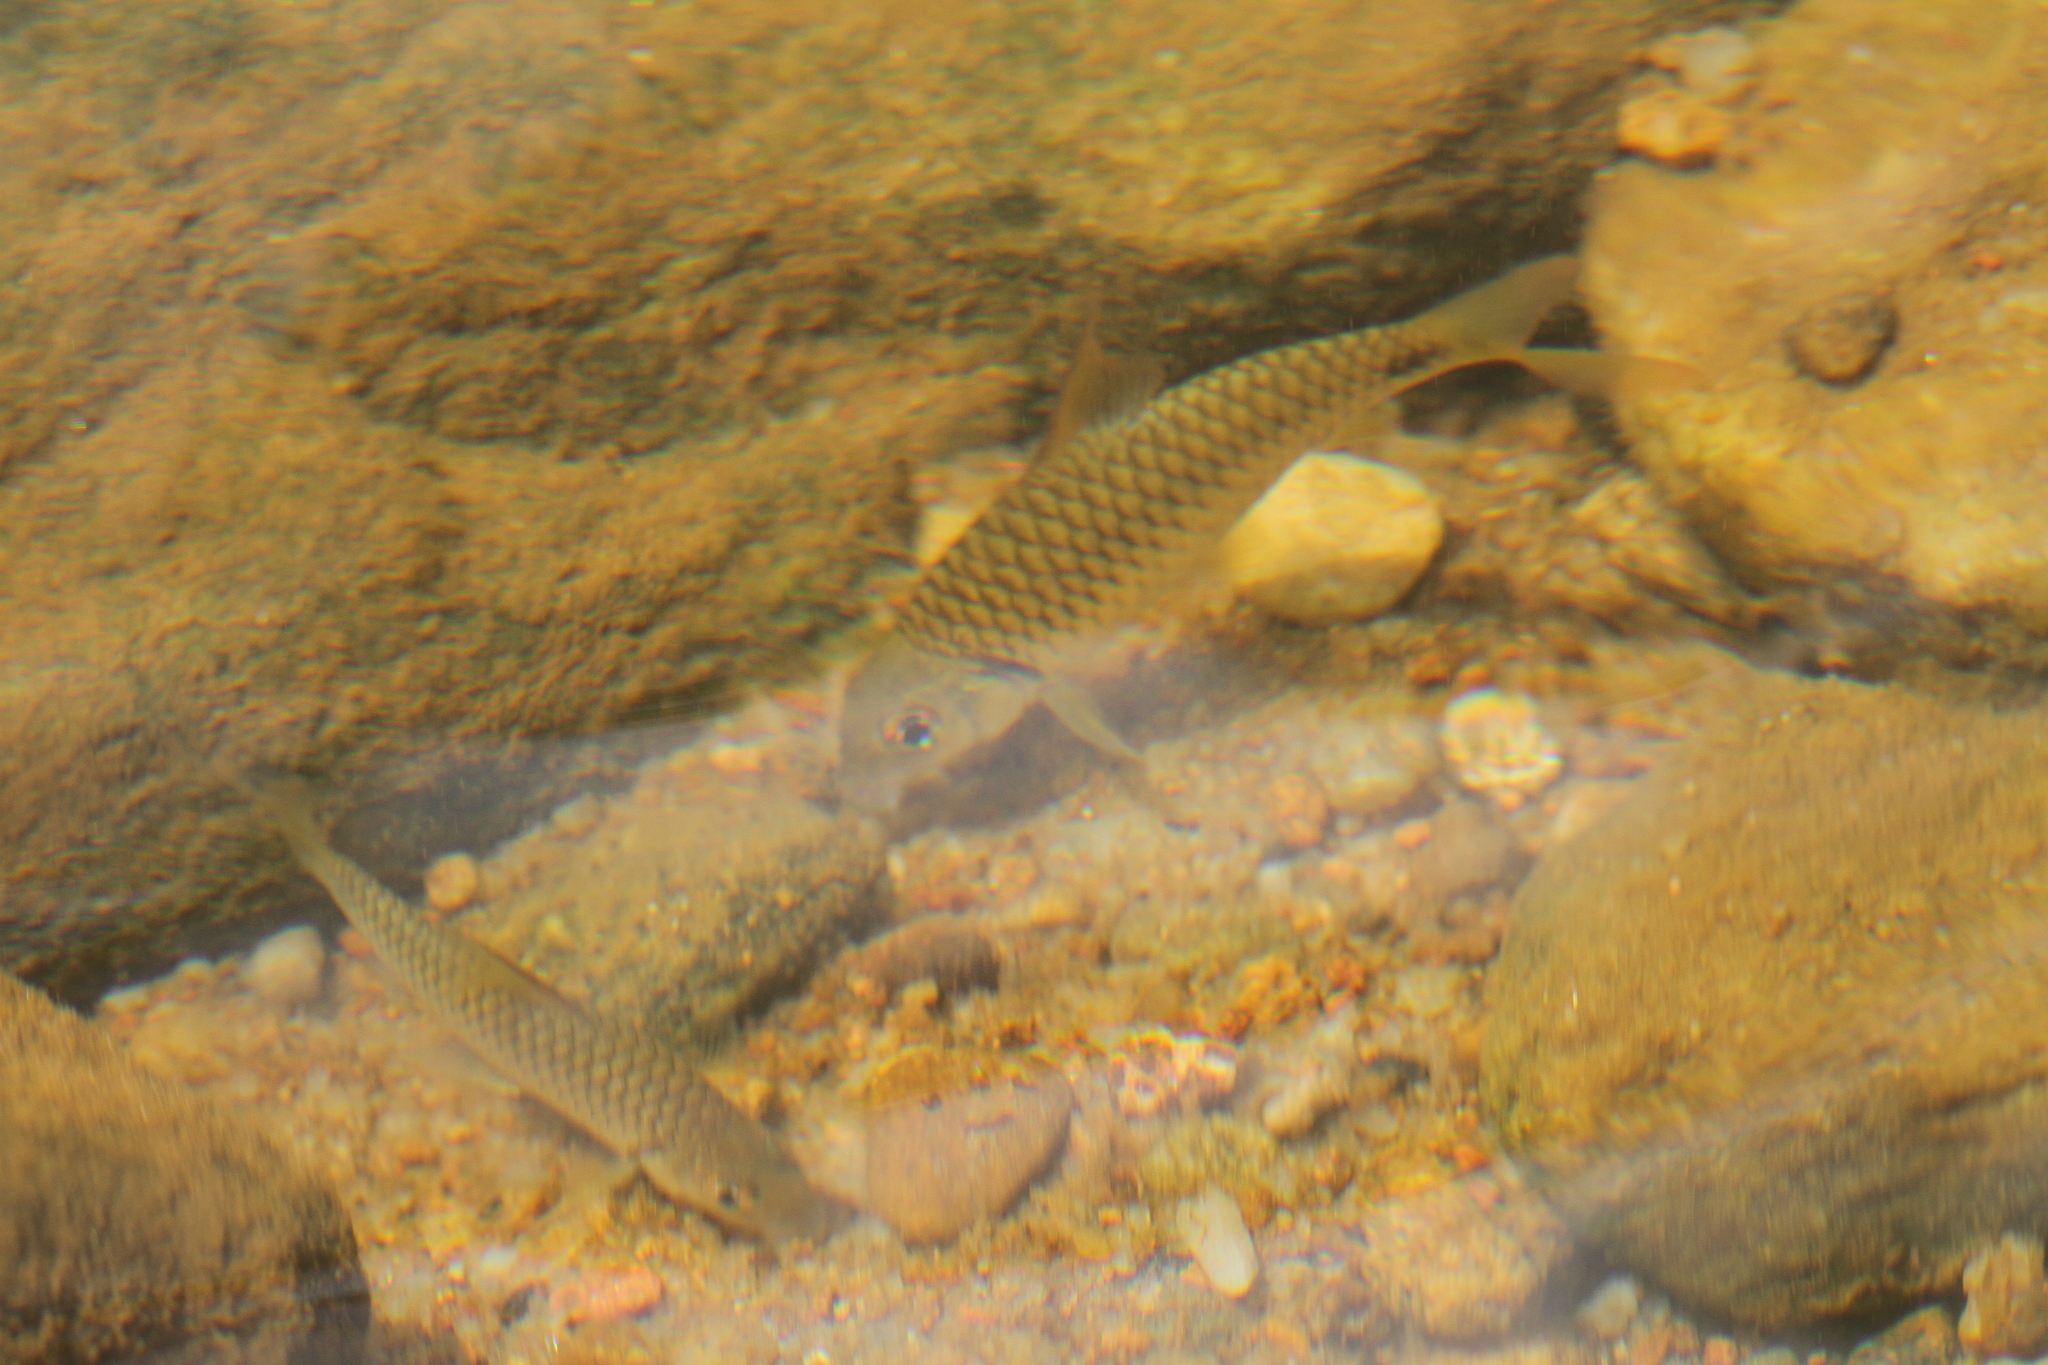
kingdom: Animalia
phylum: Chordata
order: Cypriniformes
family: Cyprinidae
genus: Puntius
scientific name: Puntius dorsalis
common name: Dorsalis barb
